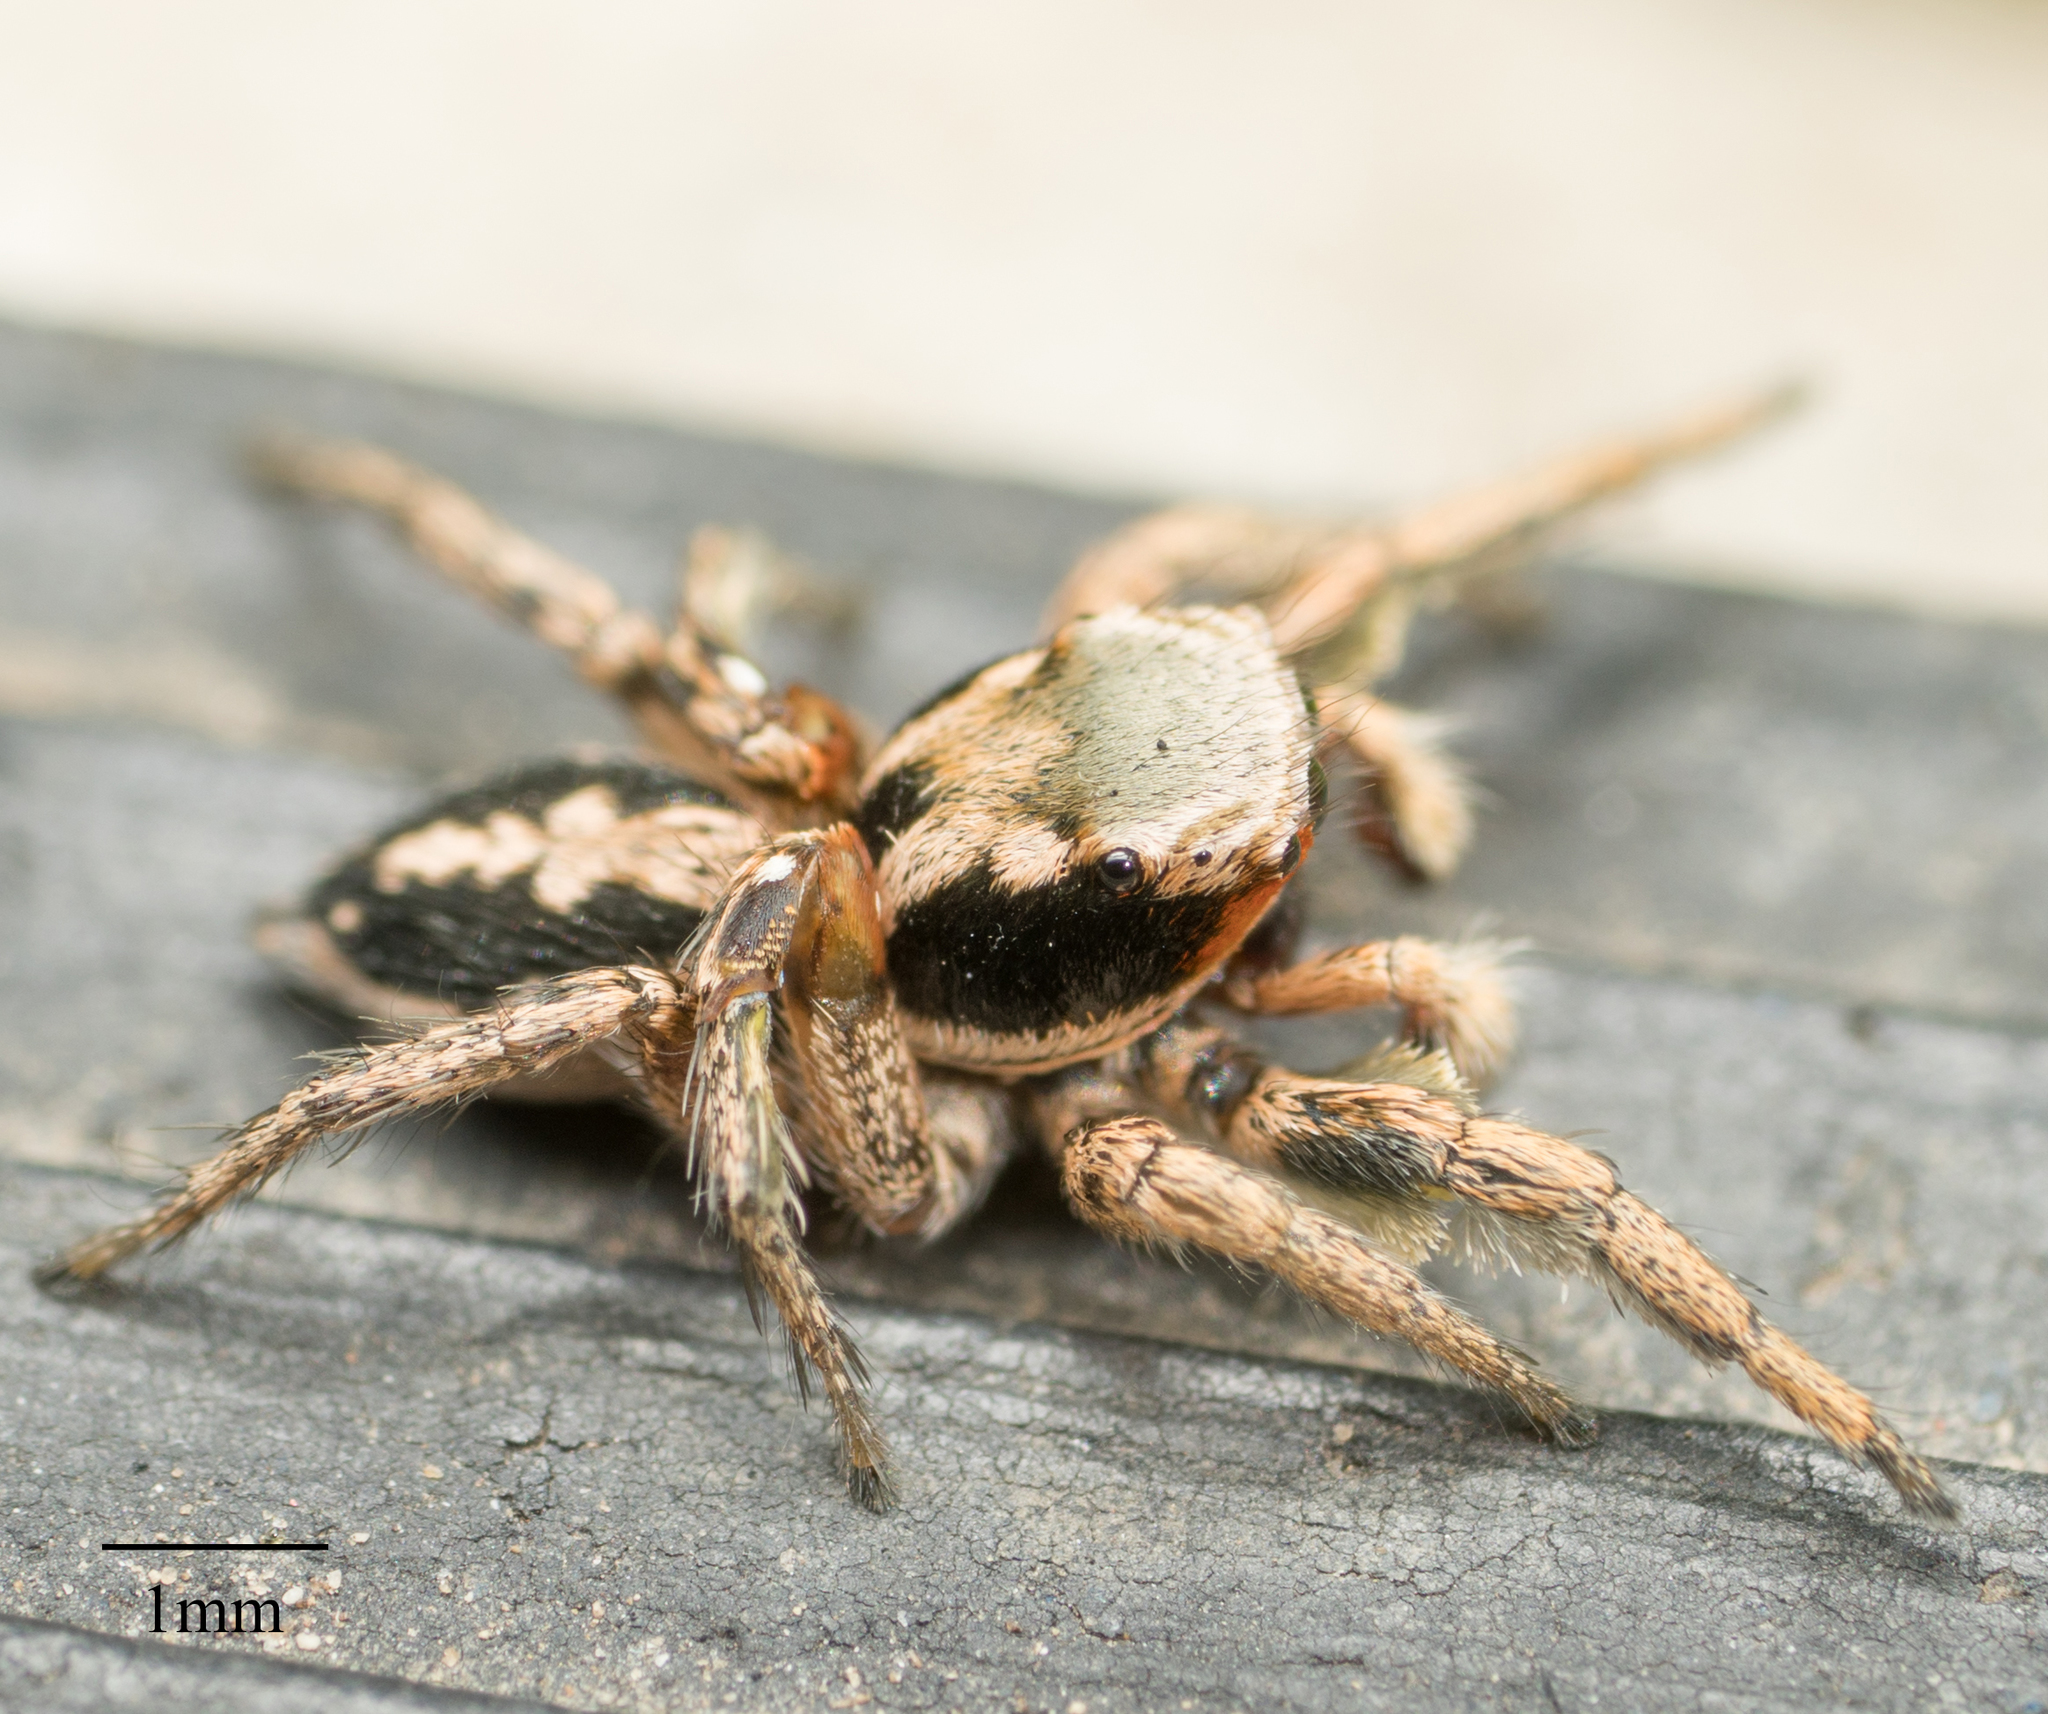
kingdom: Animalia
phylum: Arthropoda
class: Arachnida
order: Araneae
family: Salticidae
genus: Habronattus
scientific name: Habronattus pyrrithrix
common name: Jumping spider
